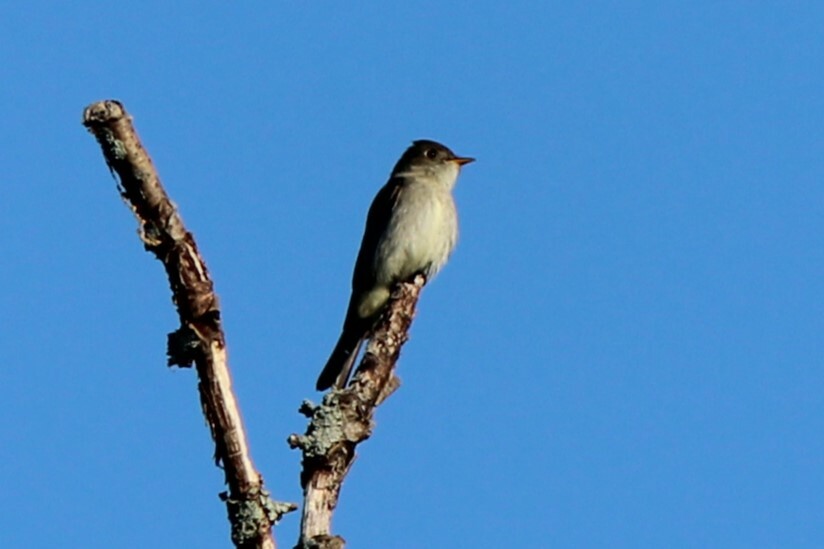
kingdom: Animalia
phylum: Chordata
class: Aves
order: Passeriformes
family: Tyrannidae
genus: Contopus
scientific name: Contopus virens
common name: Eastern wood-pewee
